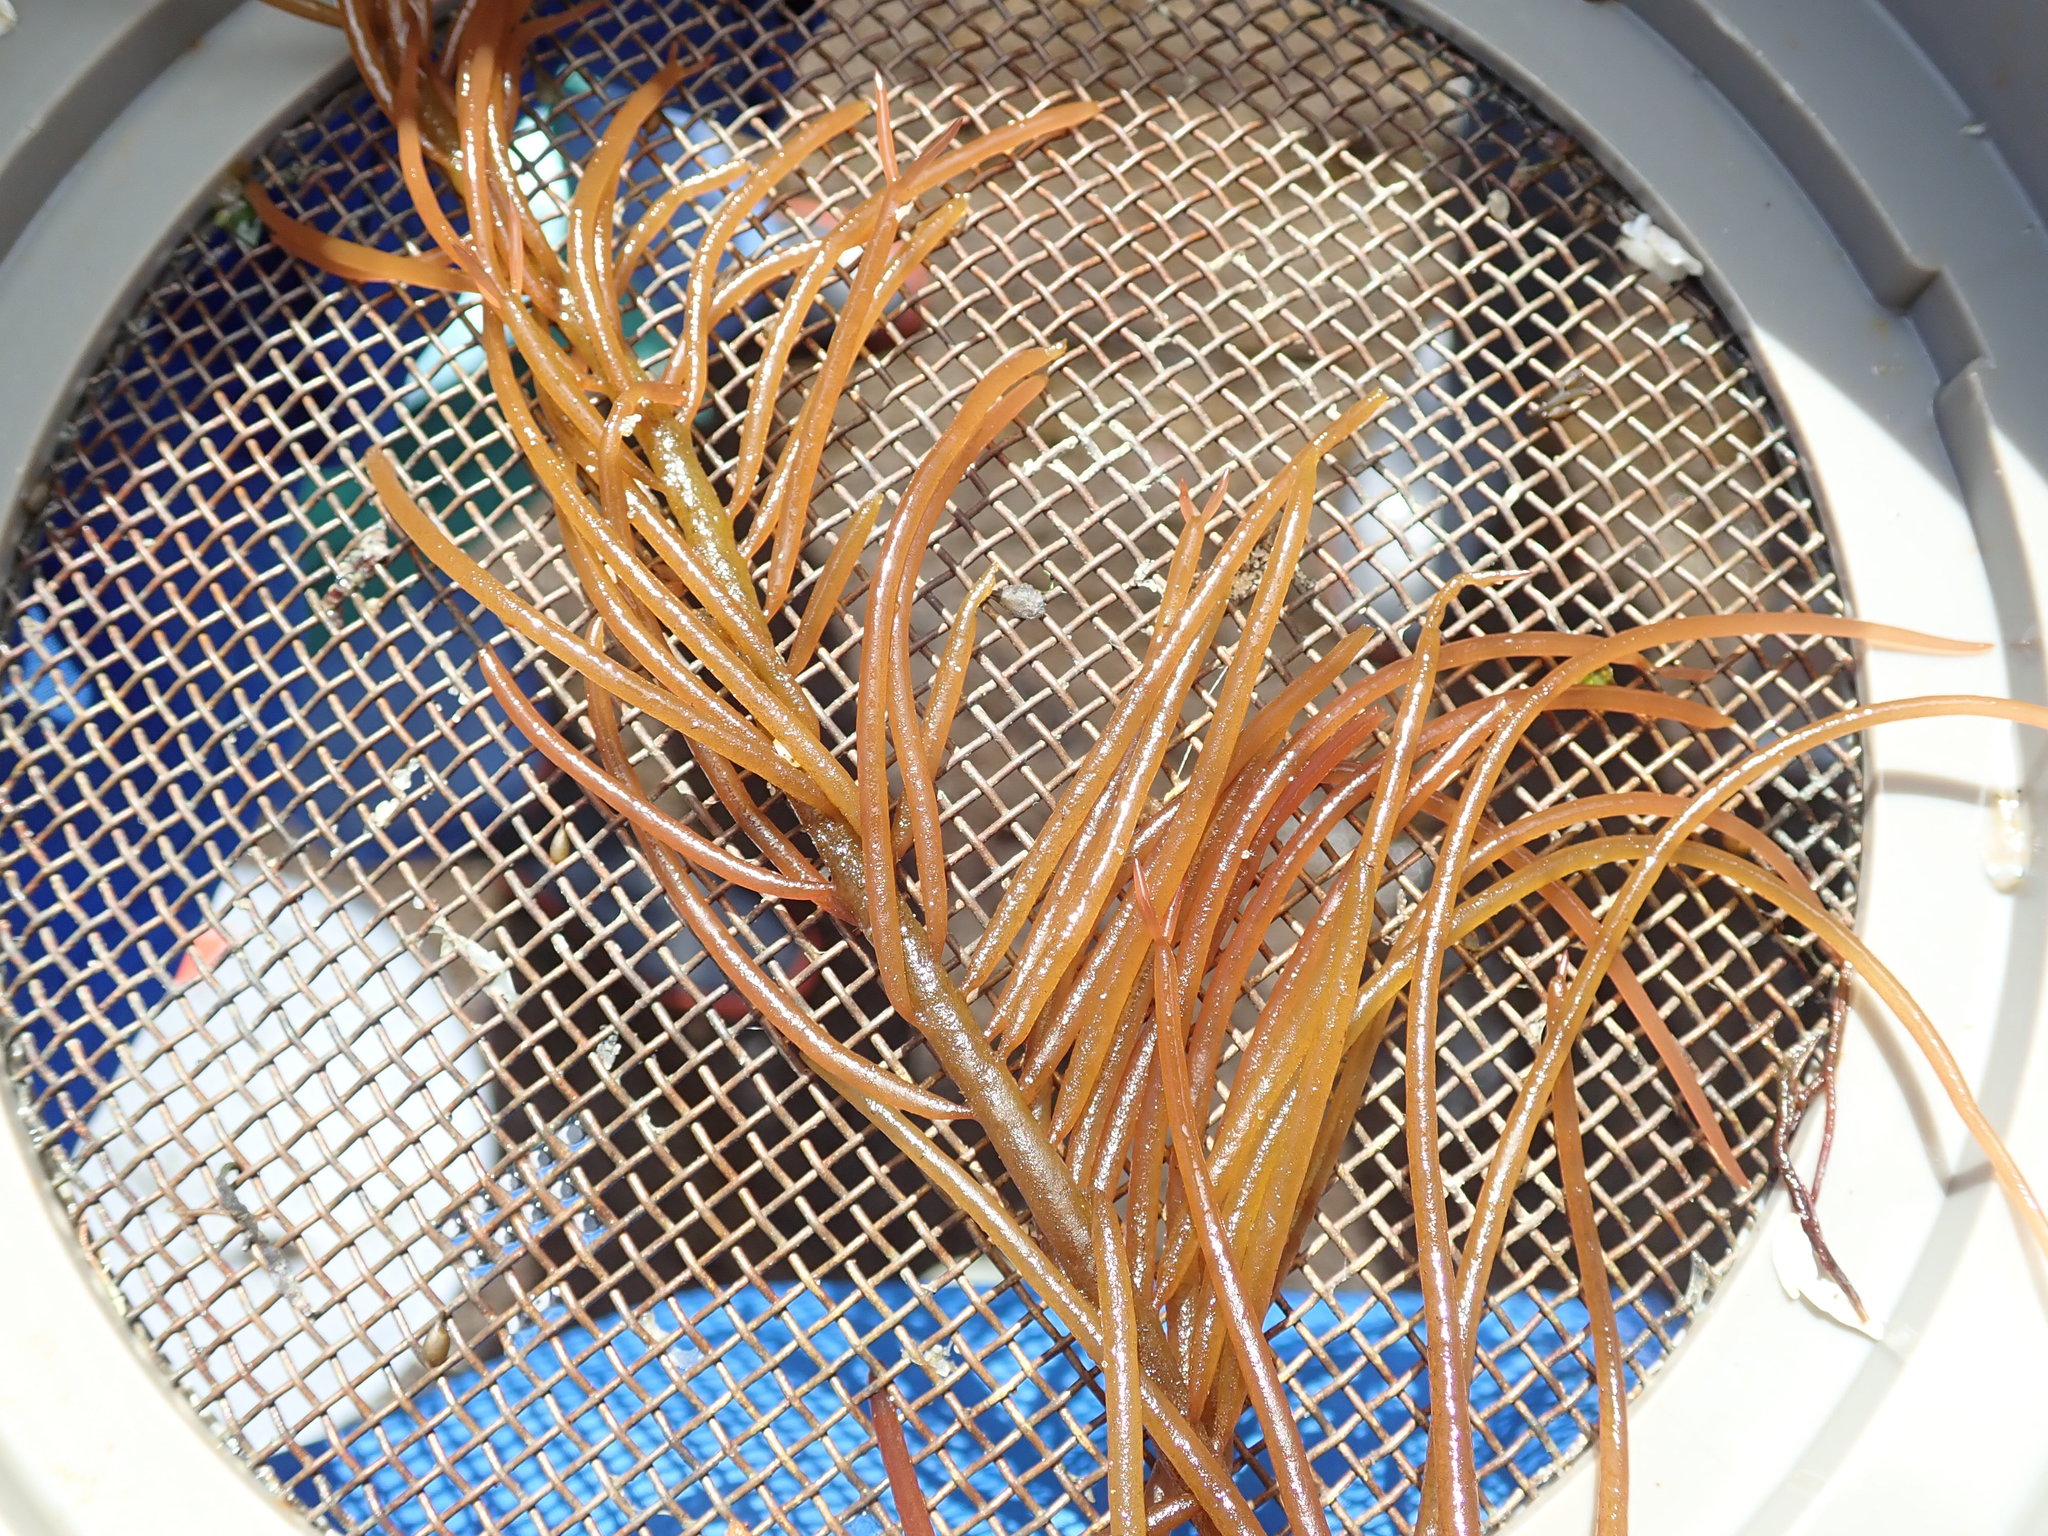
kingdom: Plantae
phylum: Rhodophyta
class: Florideophyceae
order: Gigartinales
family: Solieriaceae
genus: Sarcodiotheca
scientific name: Sarcodiotheca gaudichaudii
